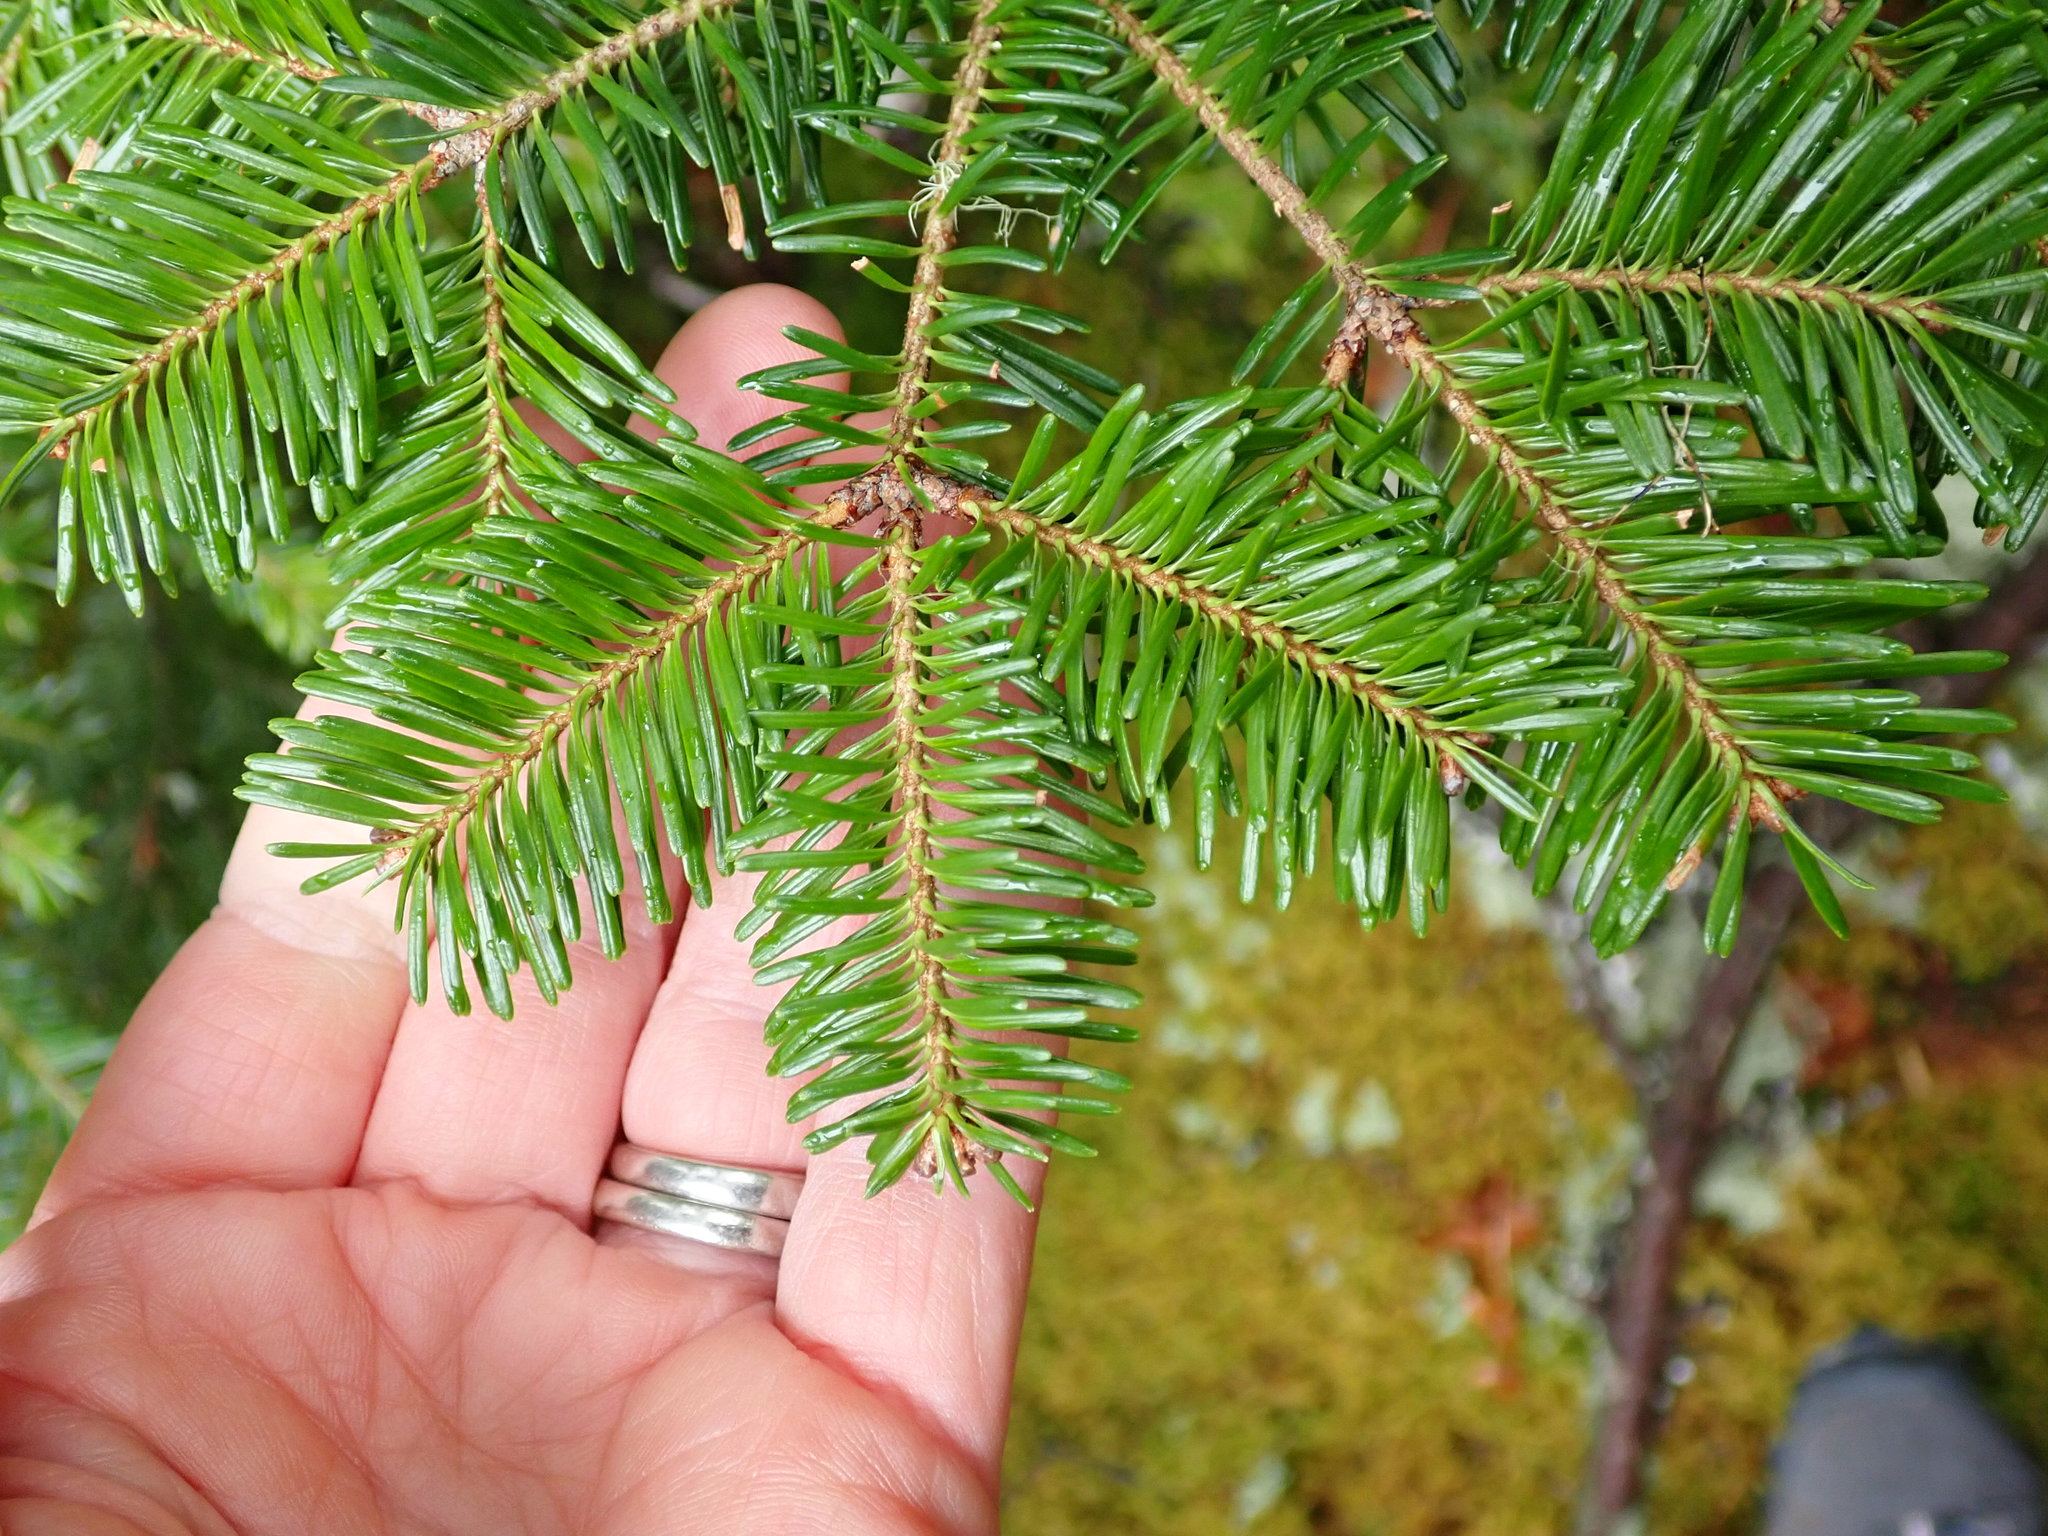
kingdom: Plantae
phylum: Tracheophyta
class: Pinopsida
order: Pinales
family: Pinaceae
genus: Abies
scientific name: Abies balsamea
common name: Balsam fir
